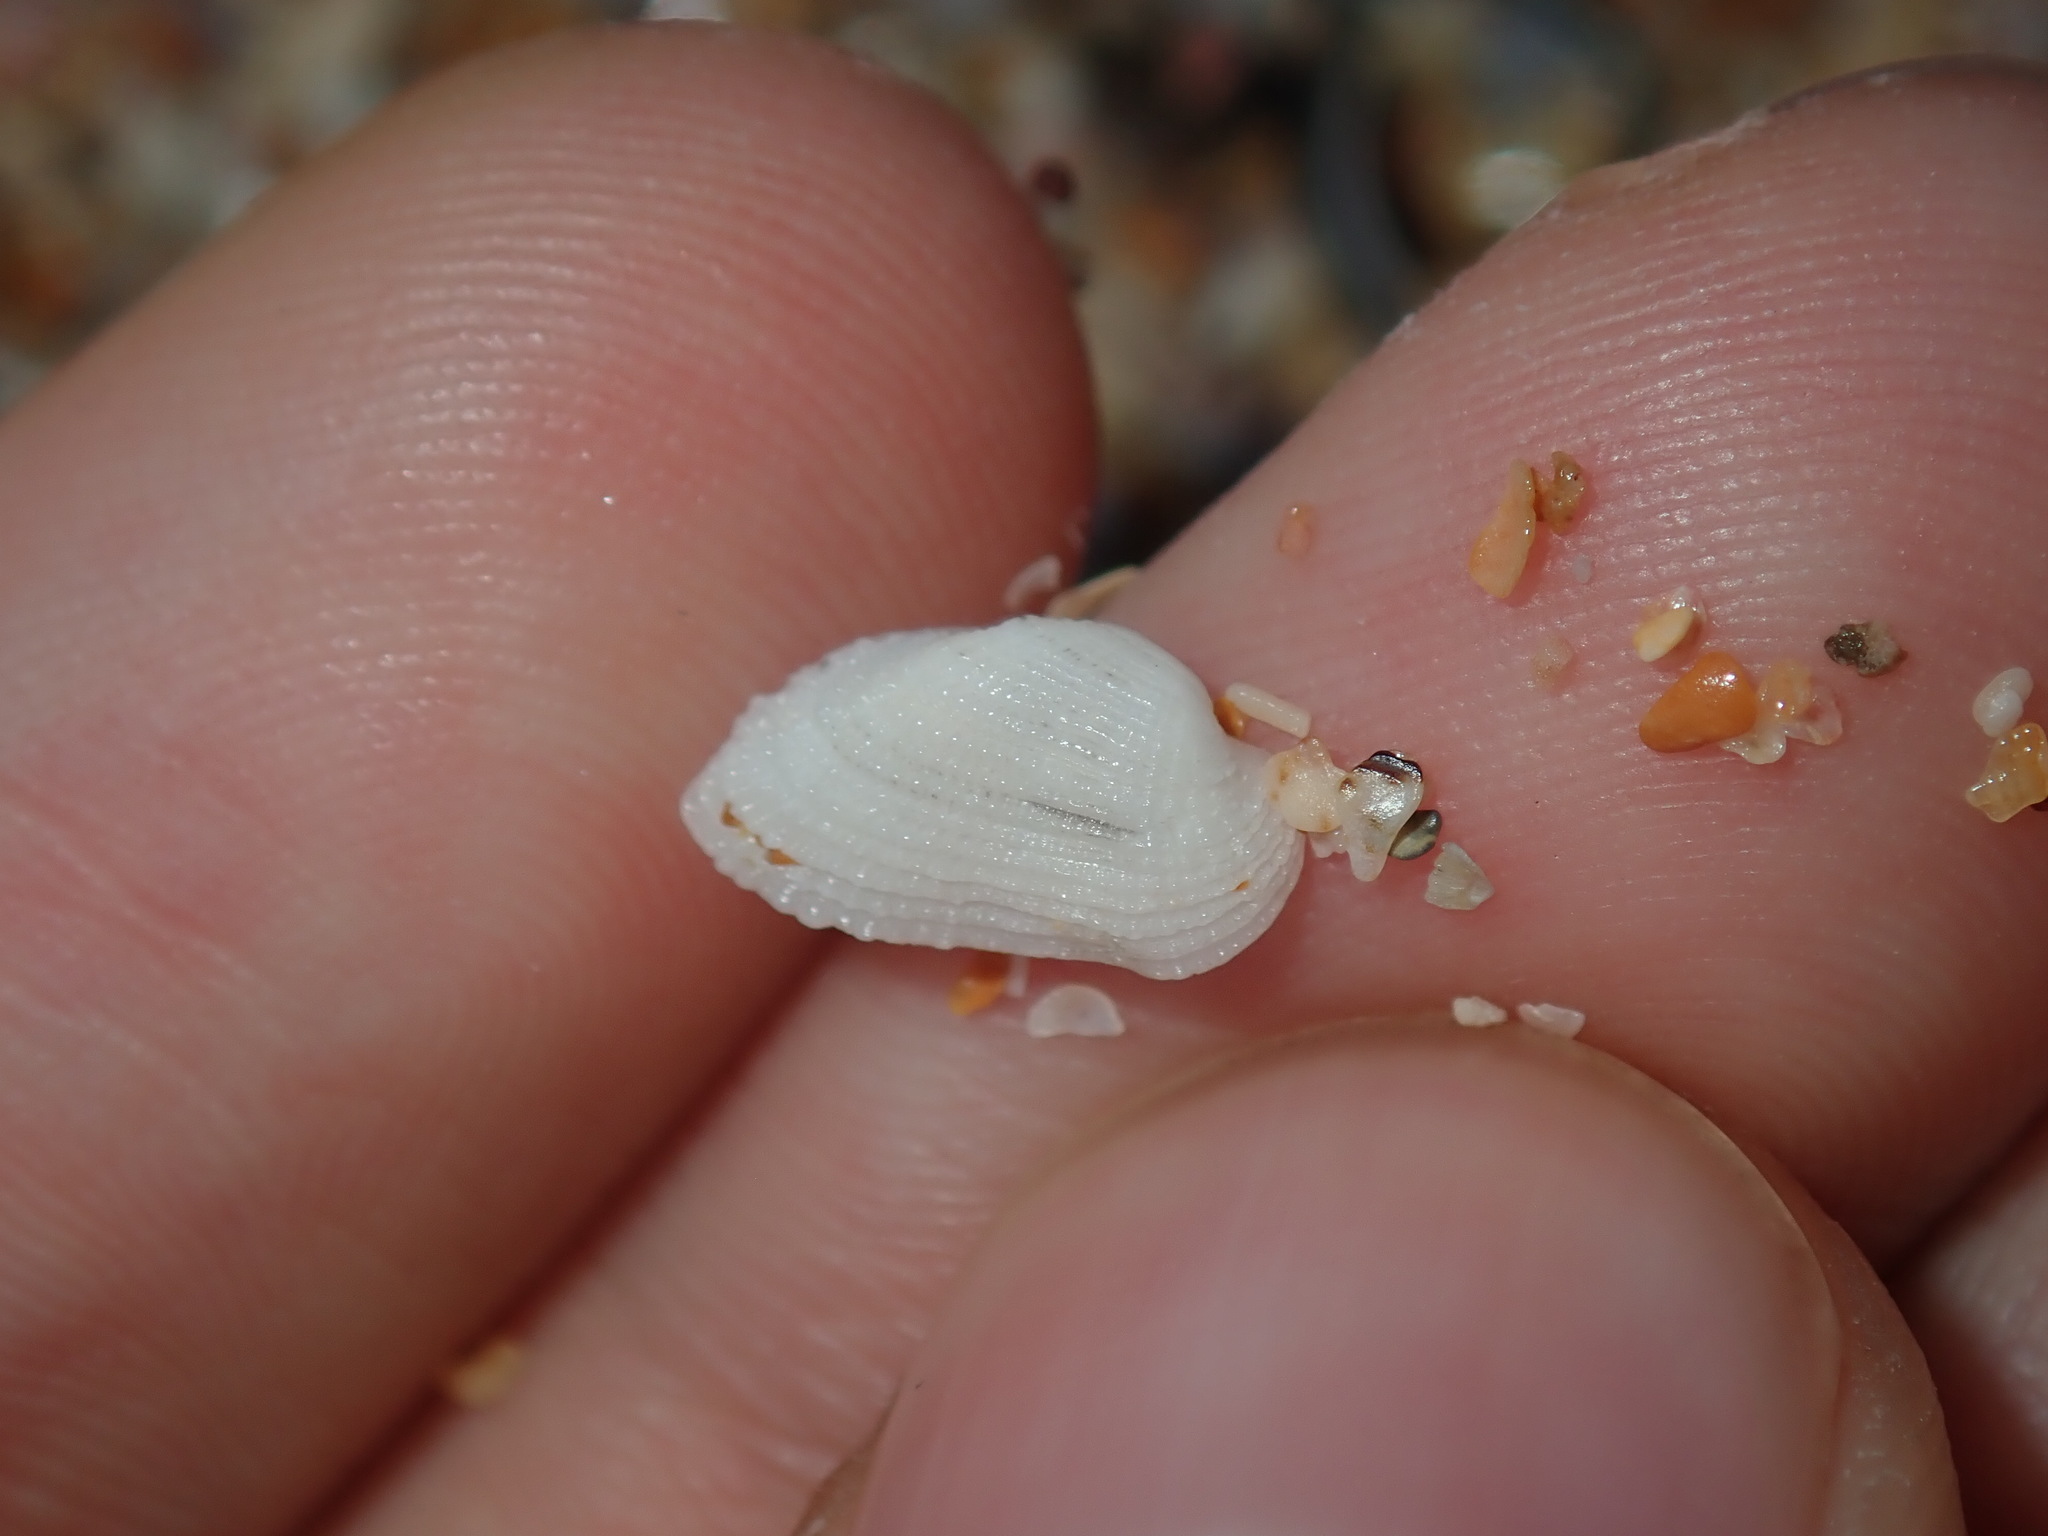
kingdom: Animalia
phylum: Mollusca
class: Bivalvia
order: Arcida
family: Arcidae
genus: Acar
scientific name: Acar botanica
